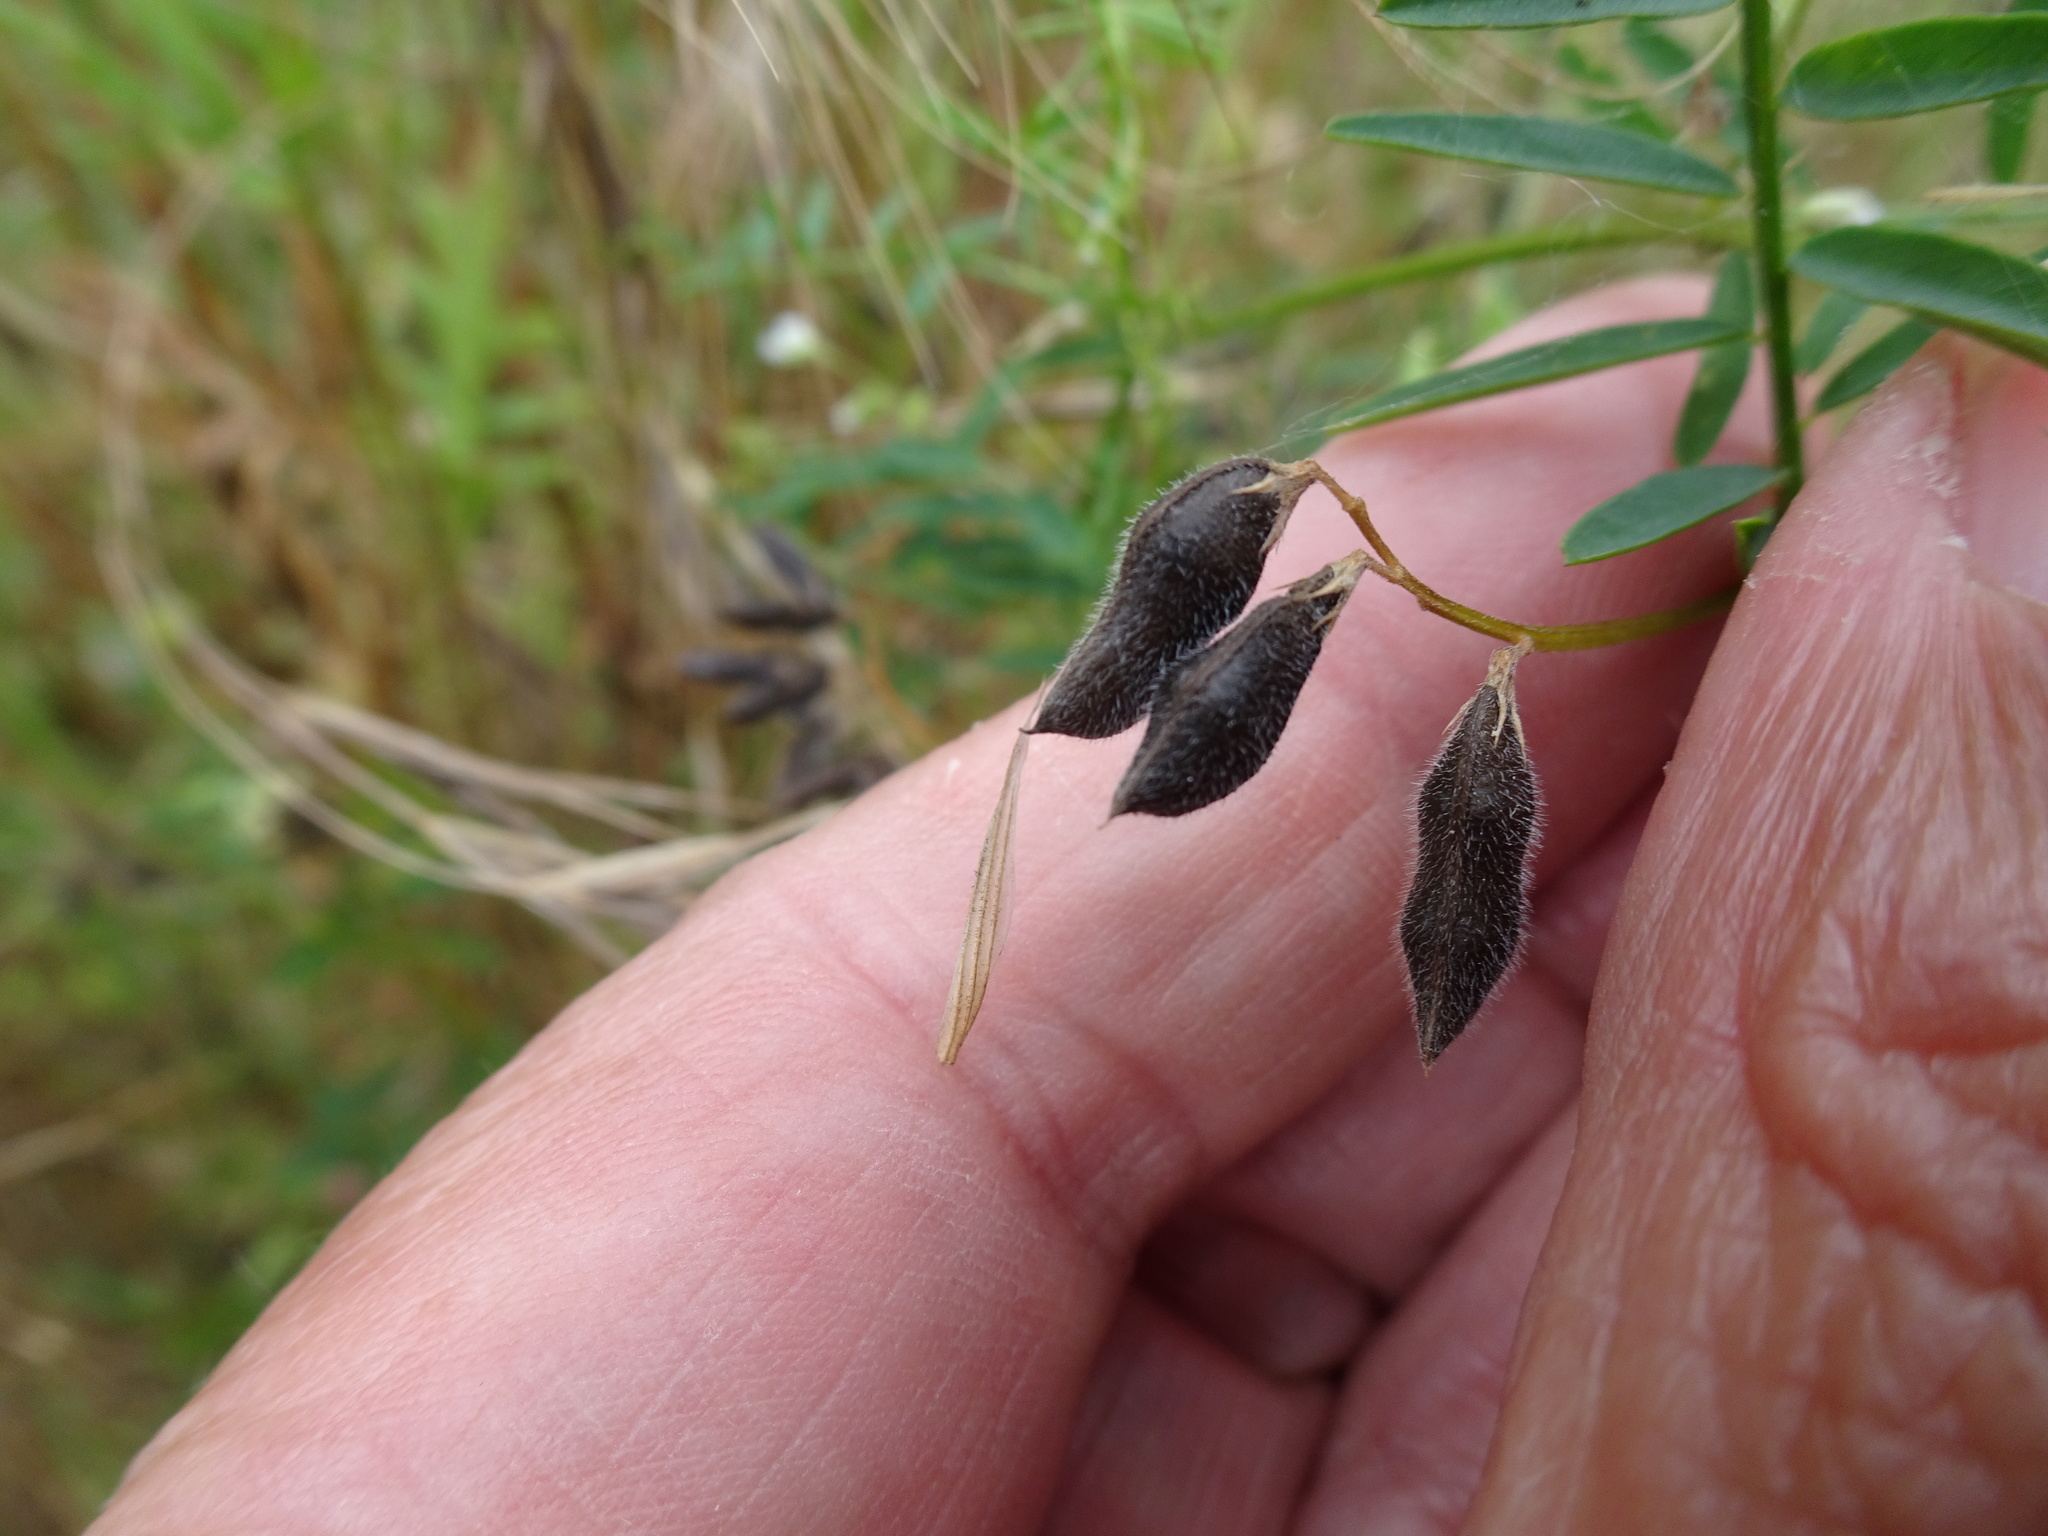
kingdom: Plantae
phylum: Tracheophyta
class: Magnoliopsida
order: Fabales
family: Fabaceae
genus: Vicia
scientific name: Vicia hirsuta
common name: Tiny vetch
